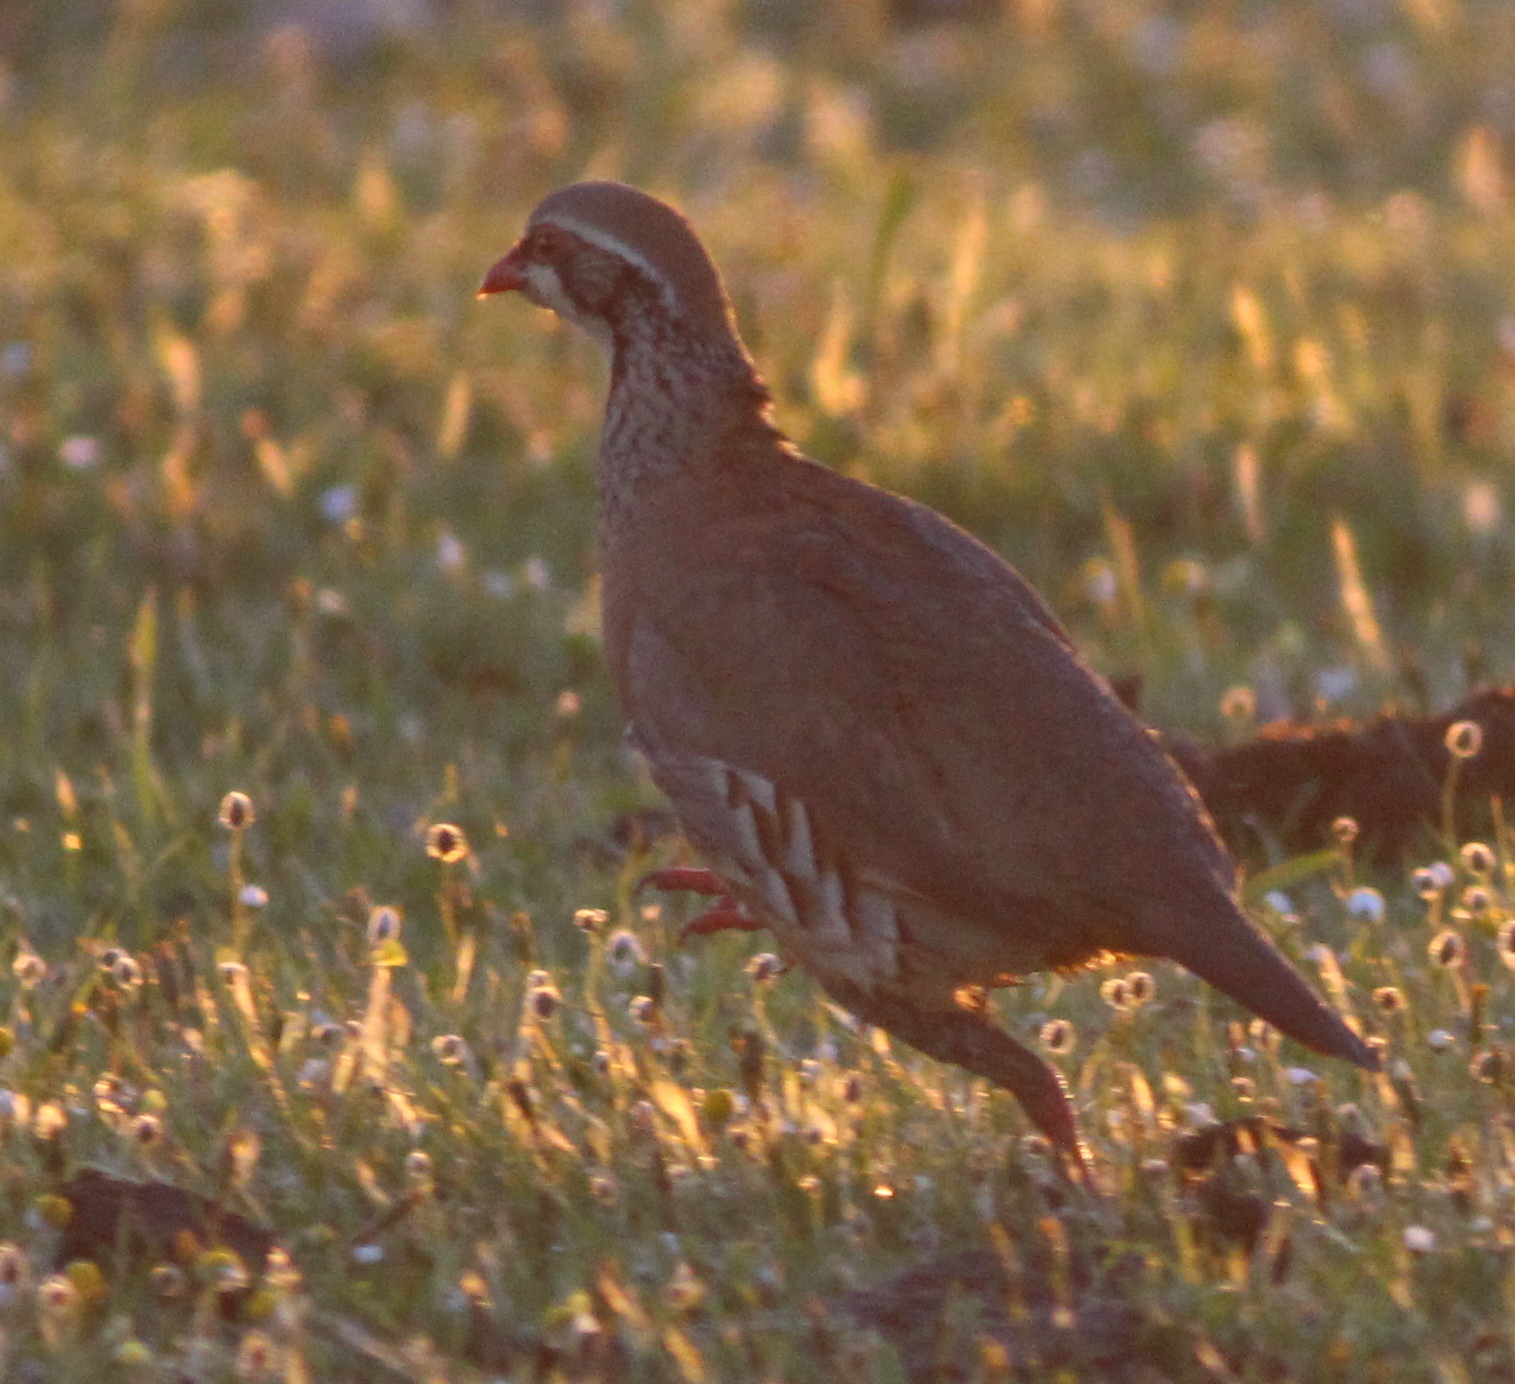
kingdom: Animalia
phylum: Chordata
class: Aves
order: Galliformes
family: Phasianidae
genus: Alectoris
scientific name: Alectoris rufa
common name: Red-legged partridge
